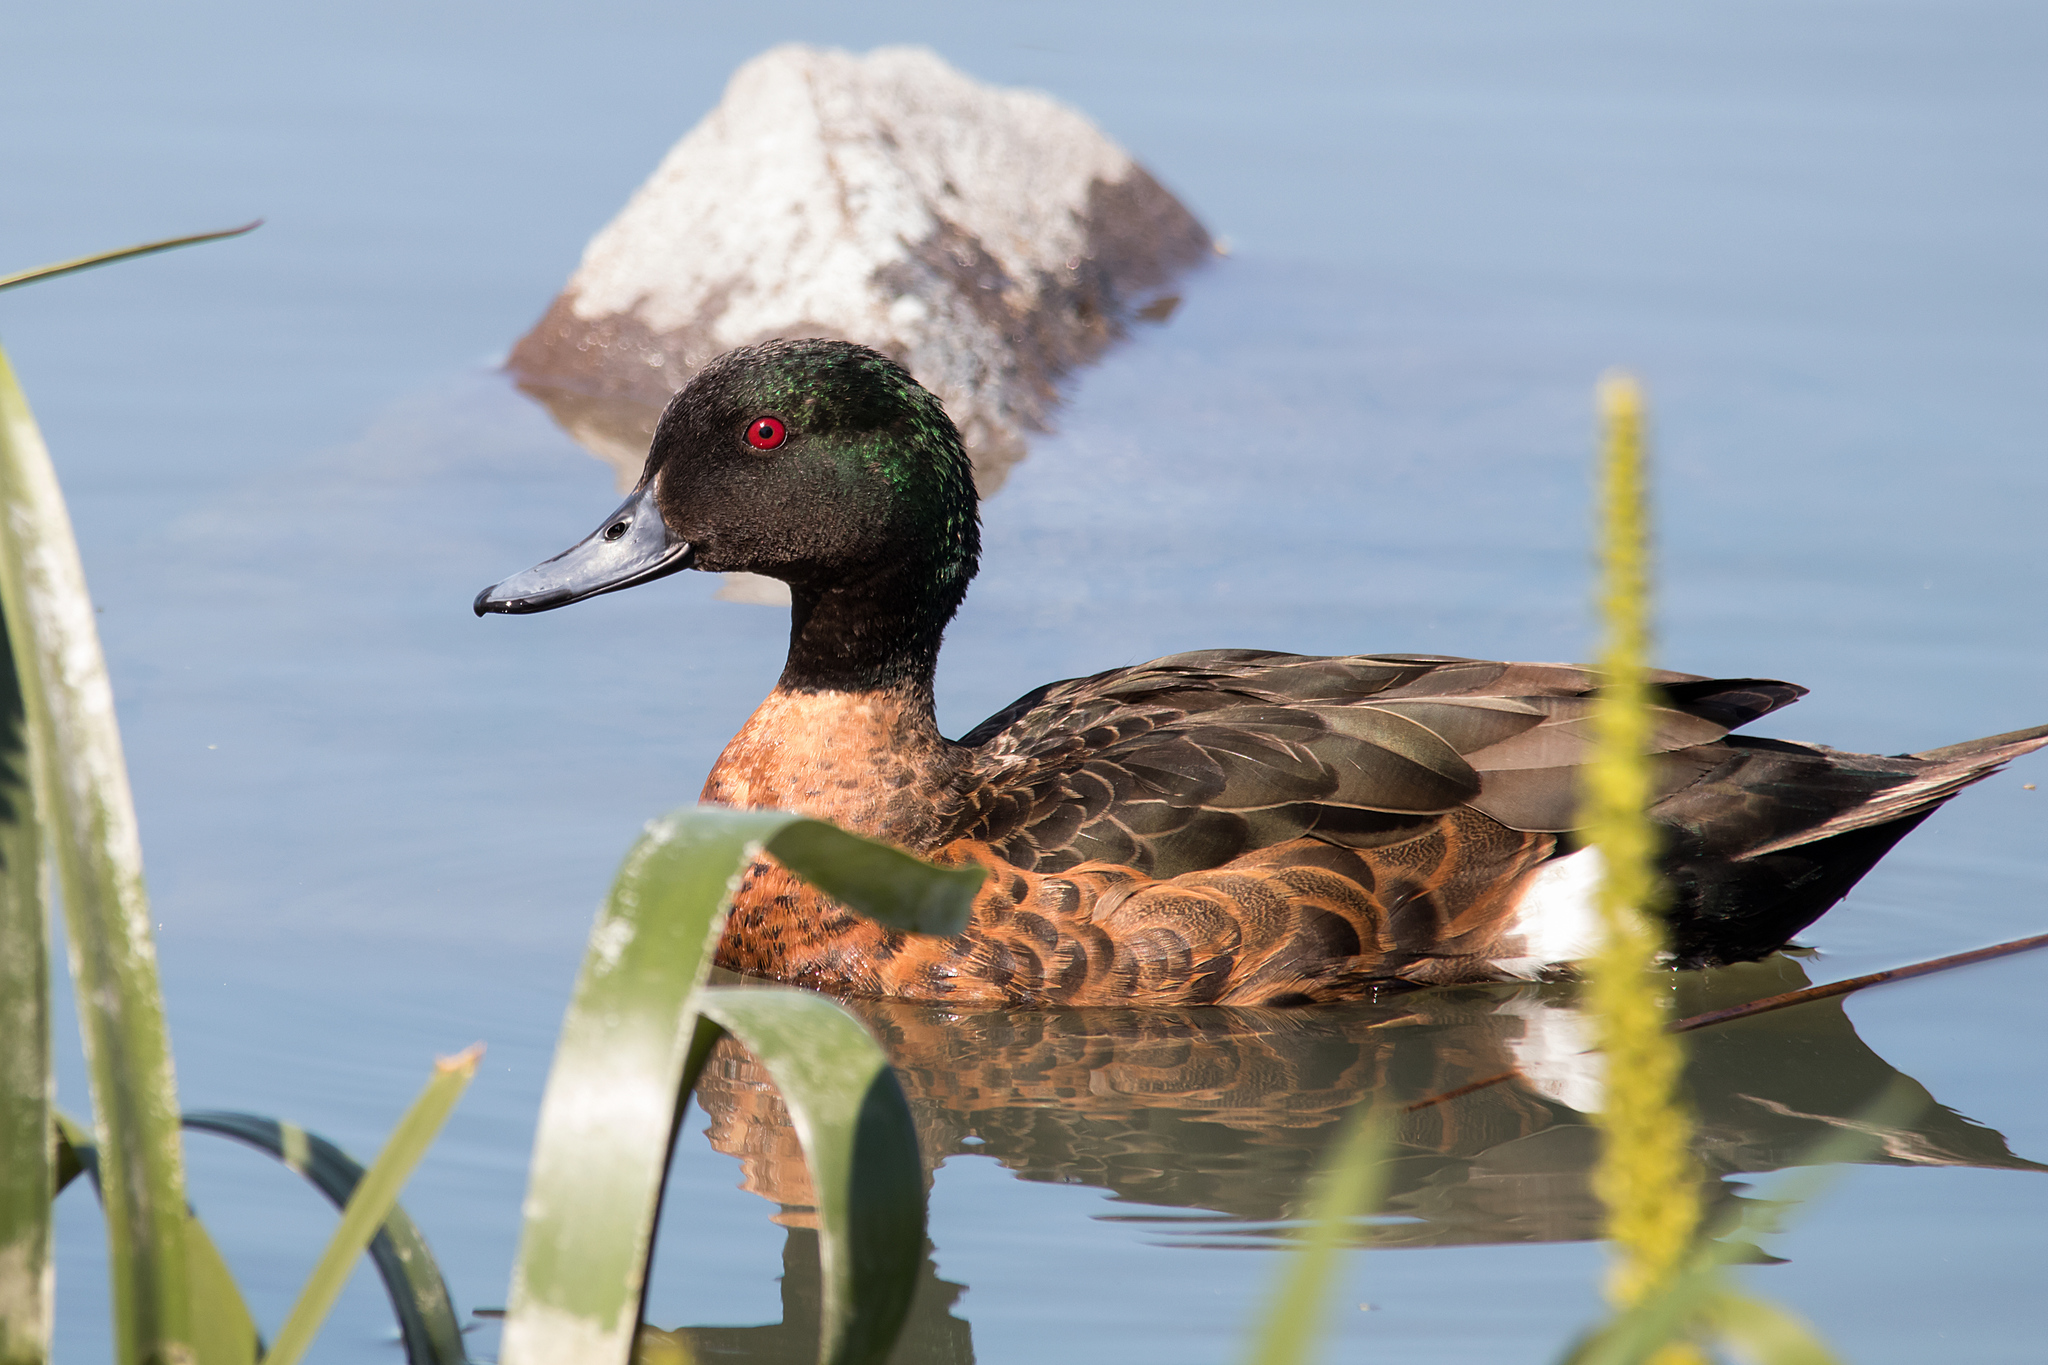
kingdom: Animalia
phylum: Chordata
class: Aves
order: Anseriformes
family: Anatidae
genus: Anas
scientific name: Anas castanea
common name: Chestnut teal
